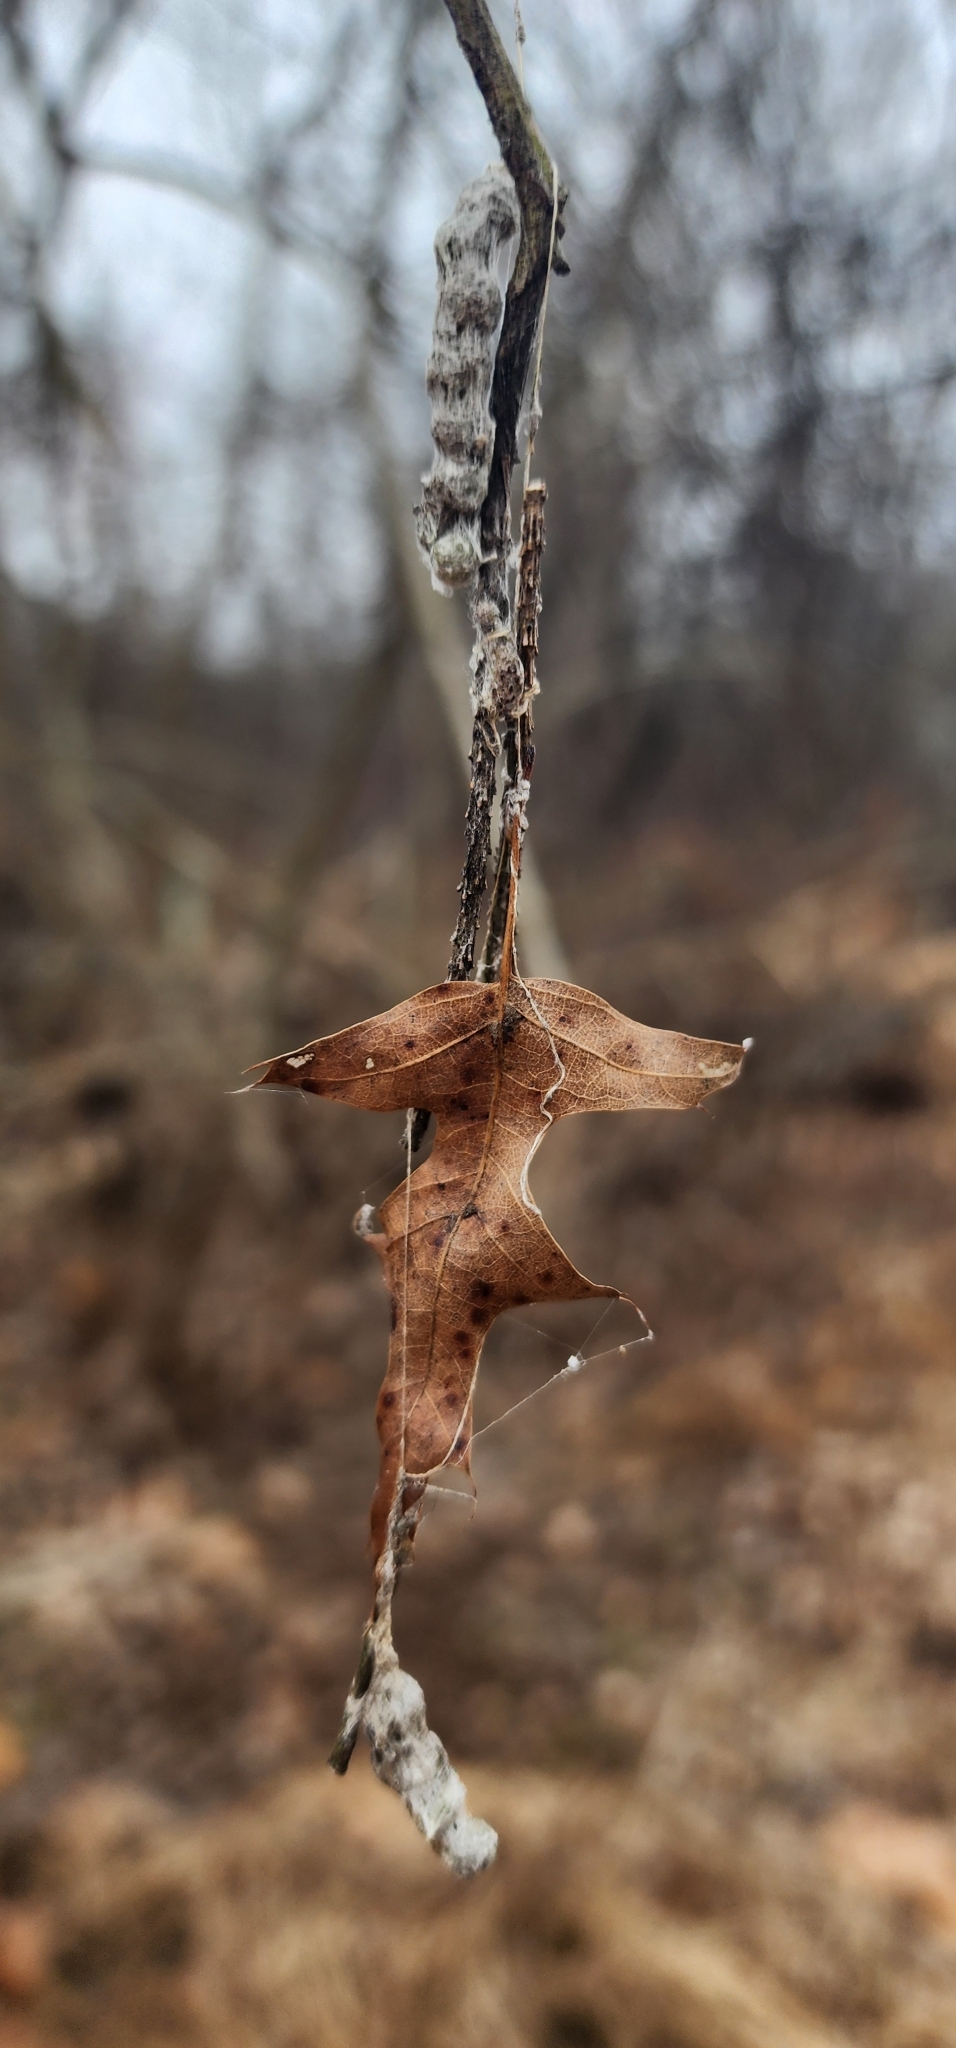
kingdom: Animalia
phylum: Arthropoda
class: Arachnida
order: Araneae
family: Araneidae
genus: Mecynogea
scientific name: Mecynogea lemniscata
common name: Orb weavers
